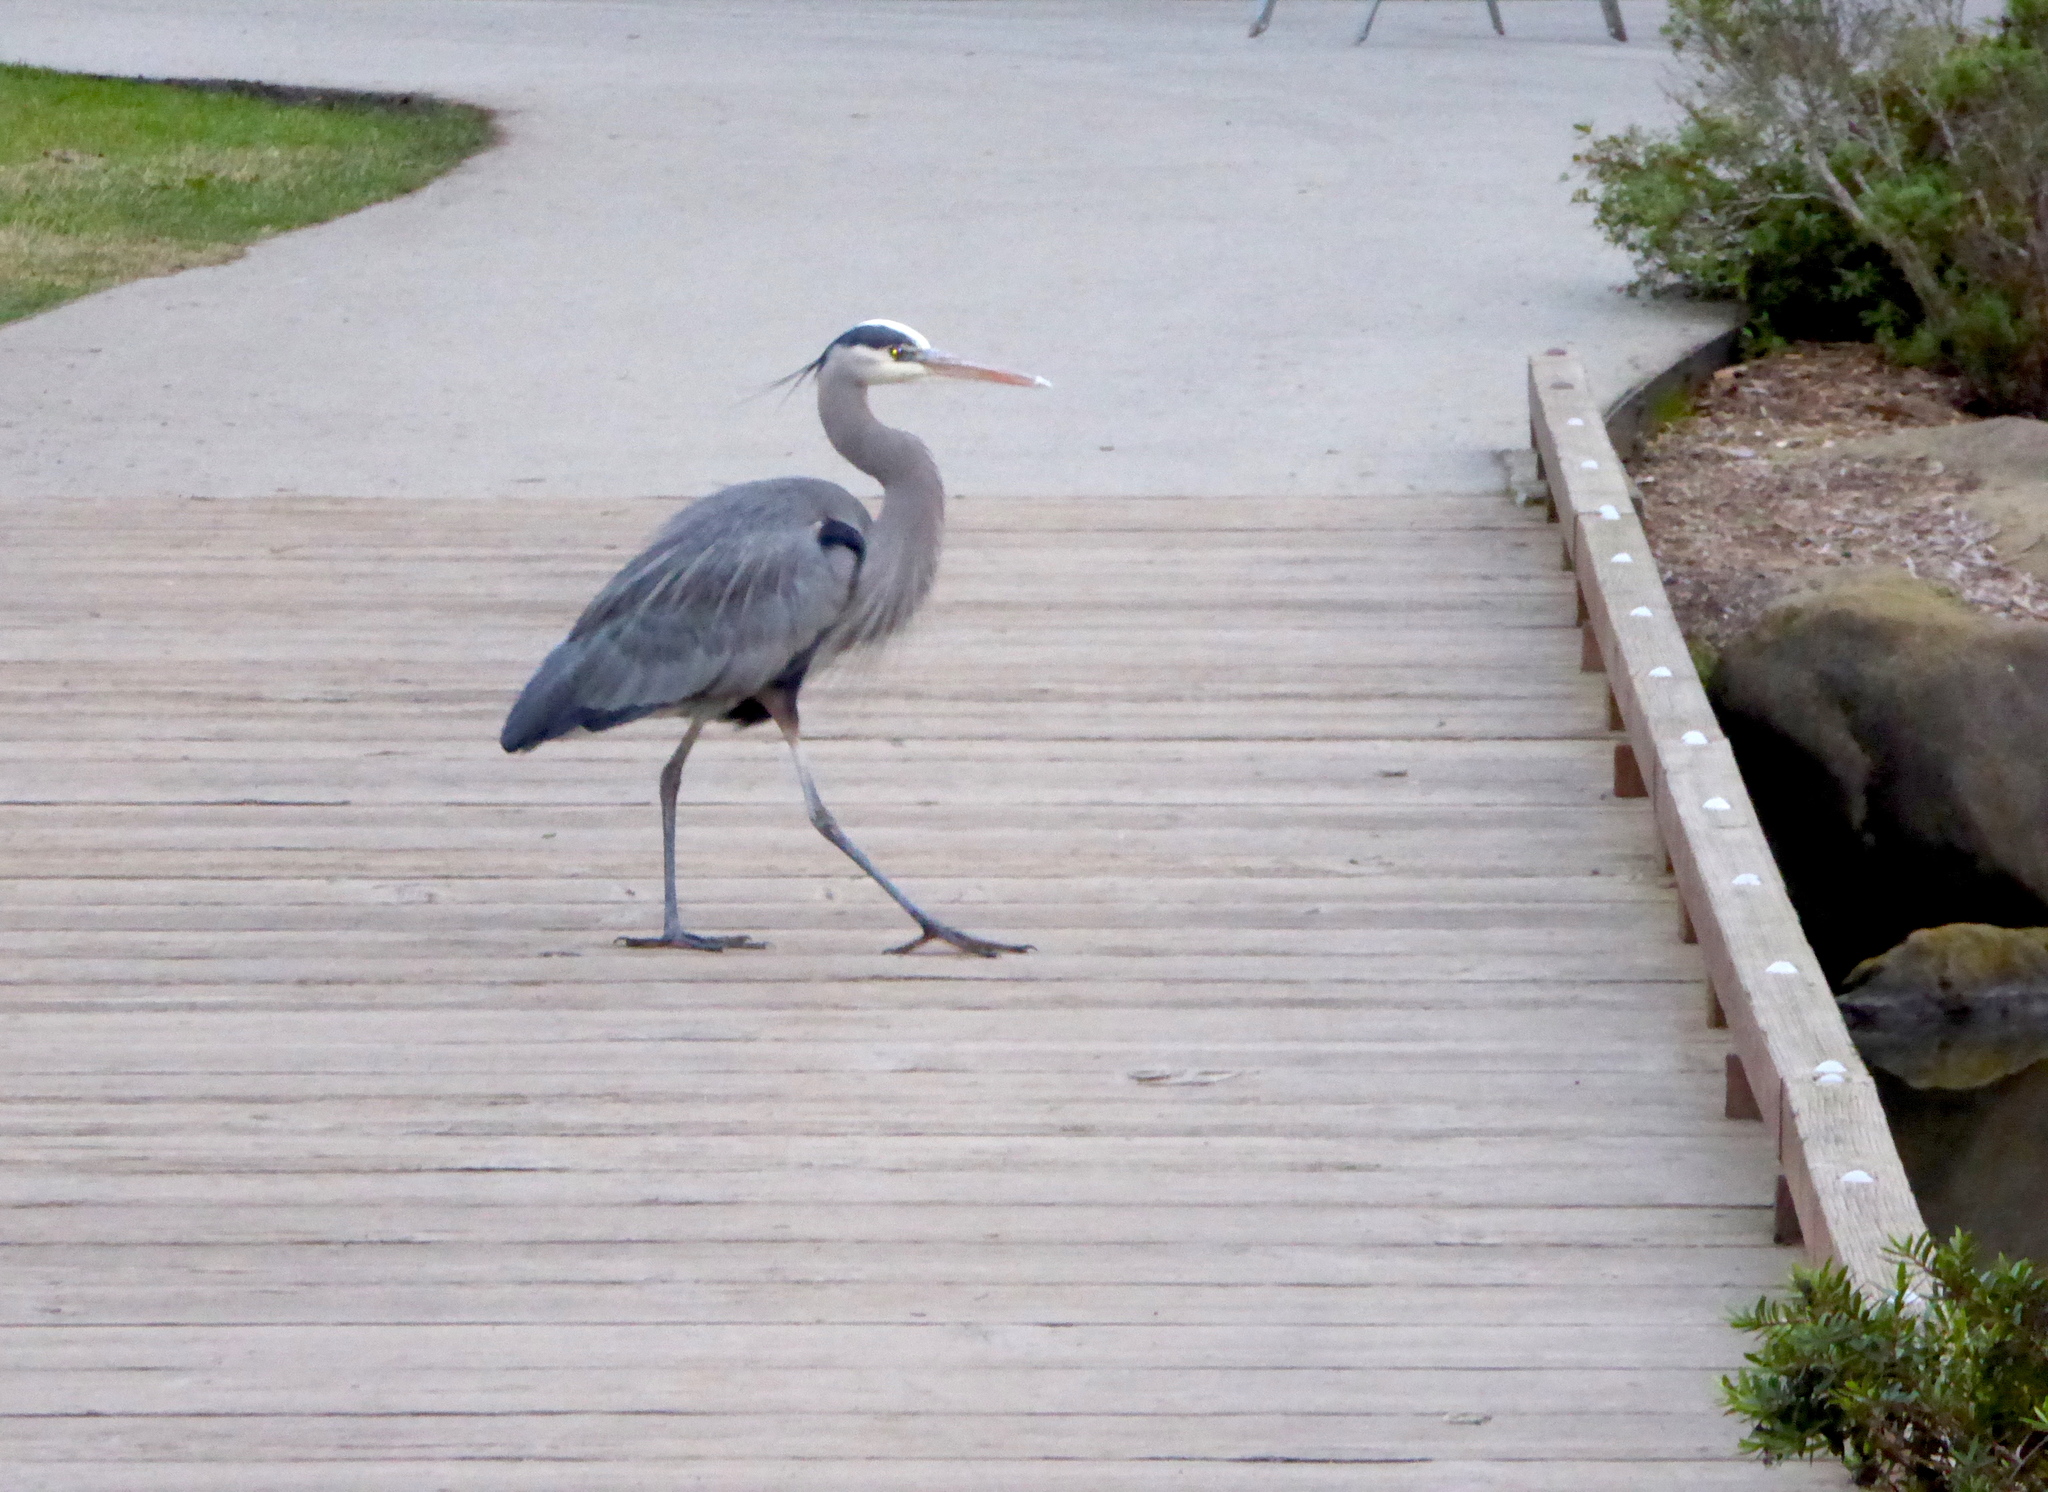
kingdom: Animalia
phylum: Chordata
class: Aves
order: Pelecaniformes
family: Ardeidae
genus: Ardea
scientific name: Ardea herodias
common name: Great blue heron
